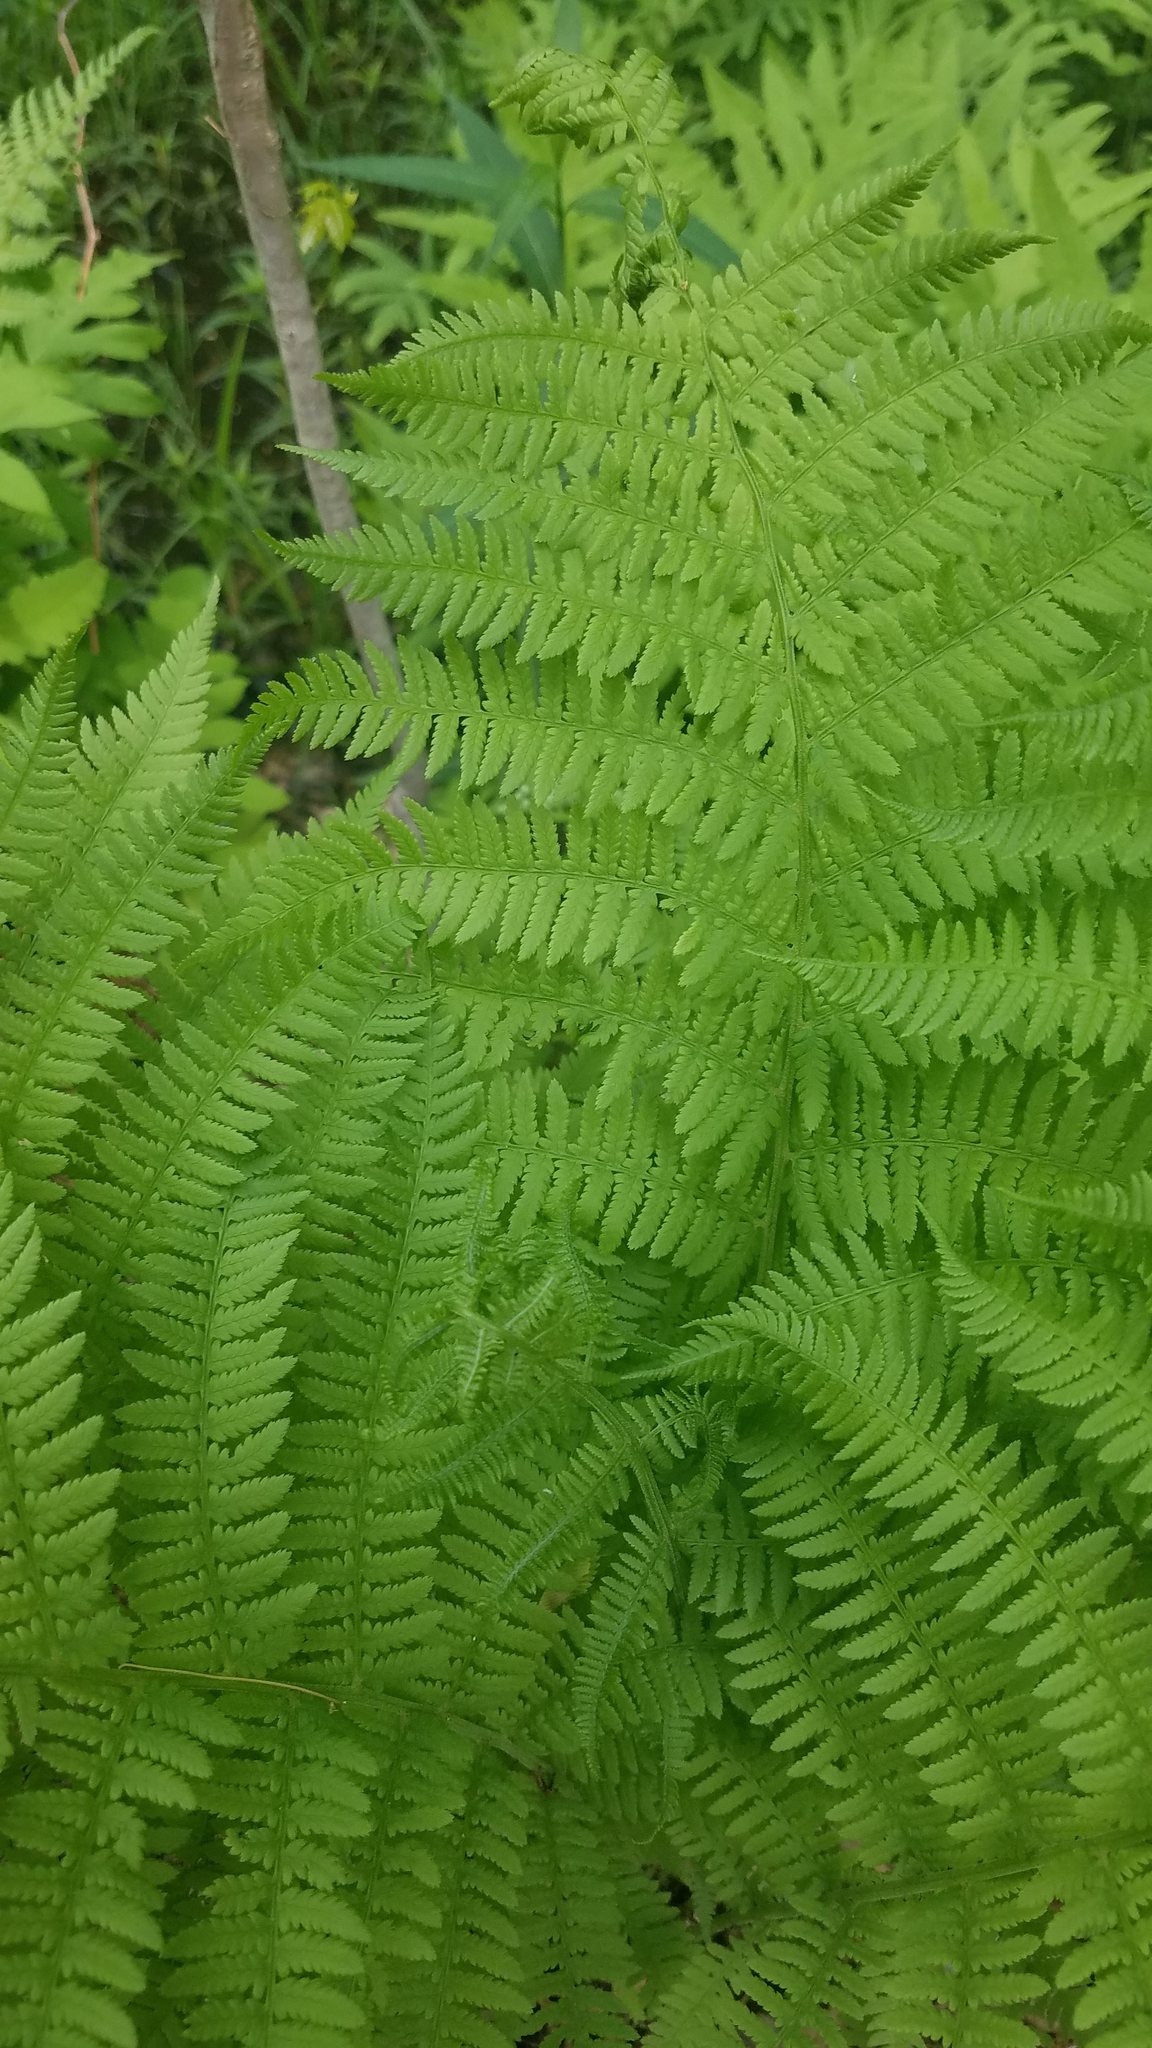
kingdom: Plantae
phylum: Tracheophyta
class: Polypodiopsida
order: Polypodiales
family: Athyriaceae
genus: Athyrium
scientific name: Athyrium angustum
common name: Northern lady fern
